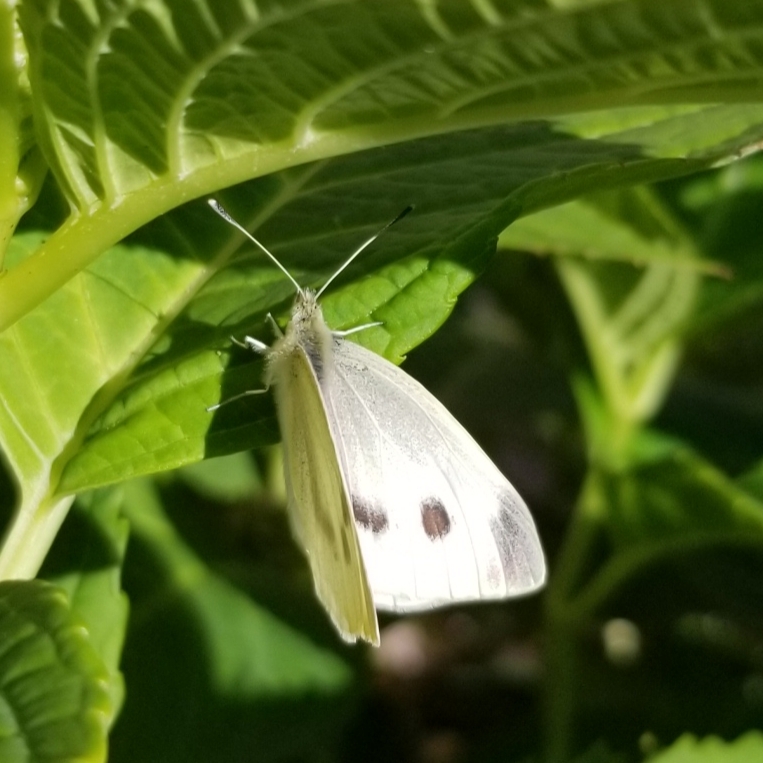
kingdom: Animalia
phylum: Arthropoda
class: Insecta
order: Lepidoptera
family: Pieridae
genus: Pieris
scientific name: Pieris rapae
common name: Small white
